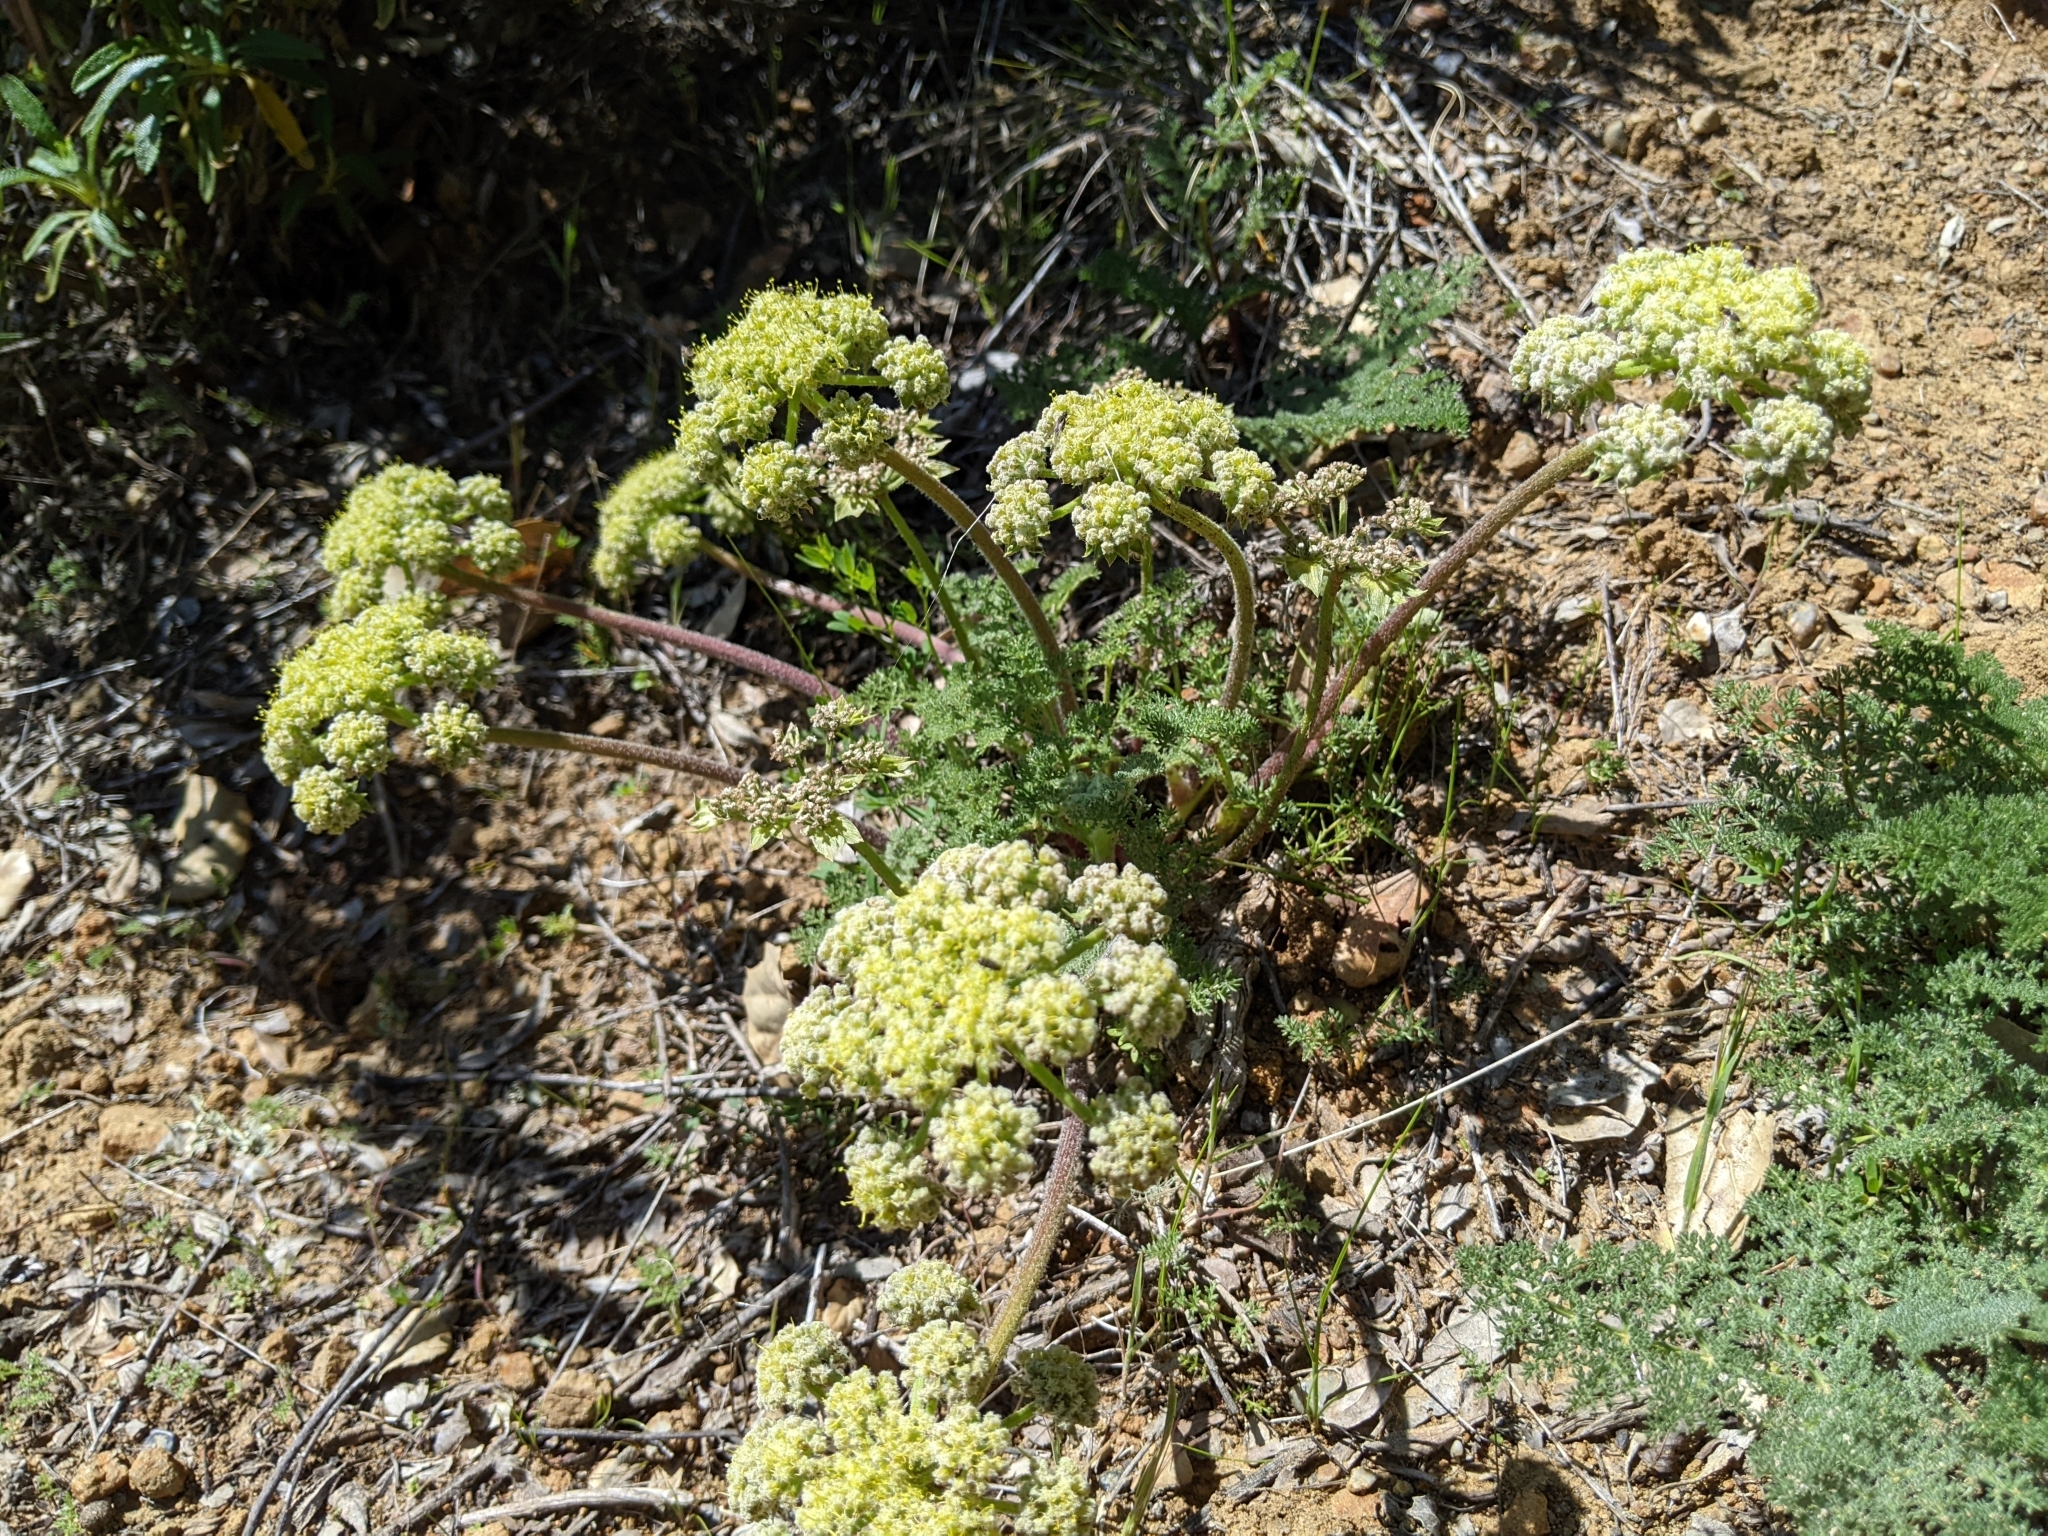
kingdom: Plantae
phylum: Tracheophyta
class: Magnoliopsida
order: Apiales
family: Apiaceae
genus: Lomatium
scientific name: Lomatium dasycarpum
